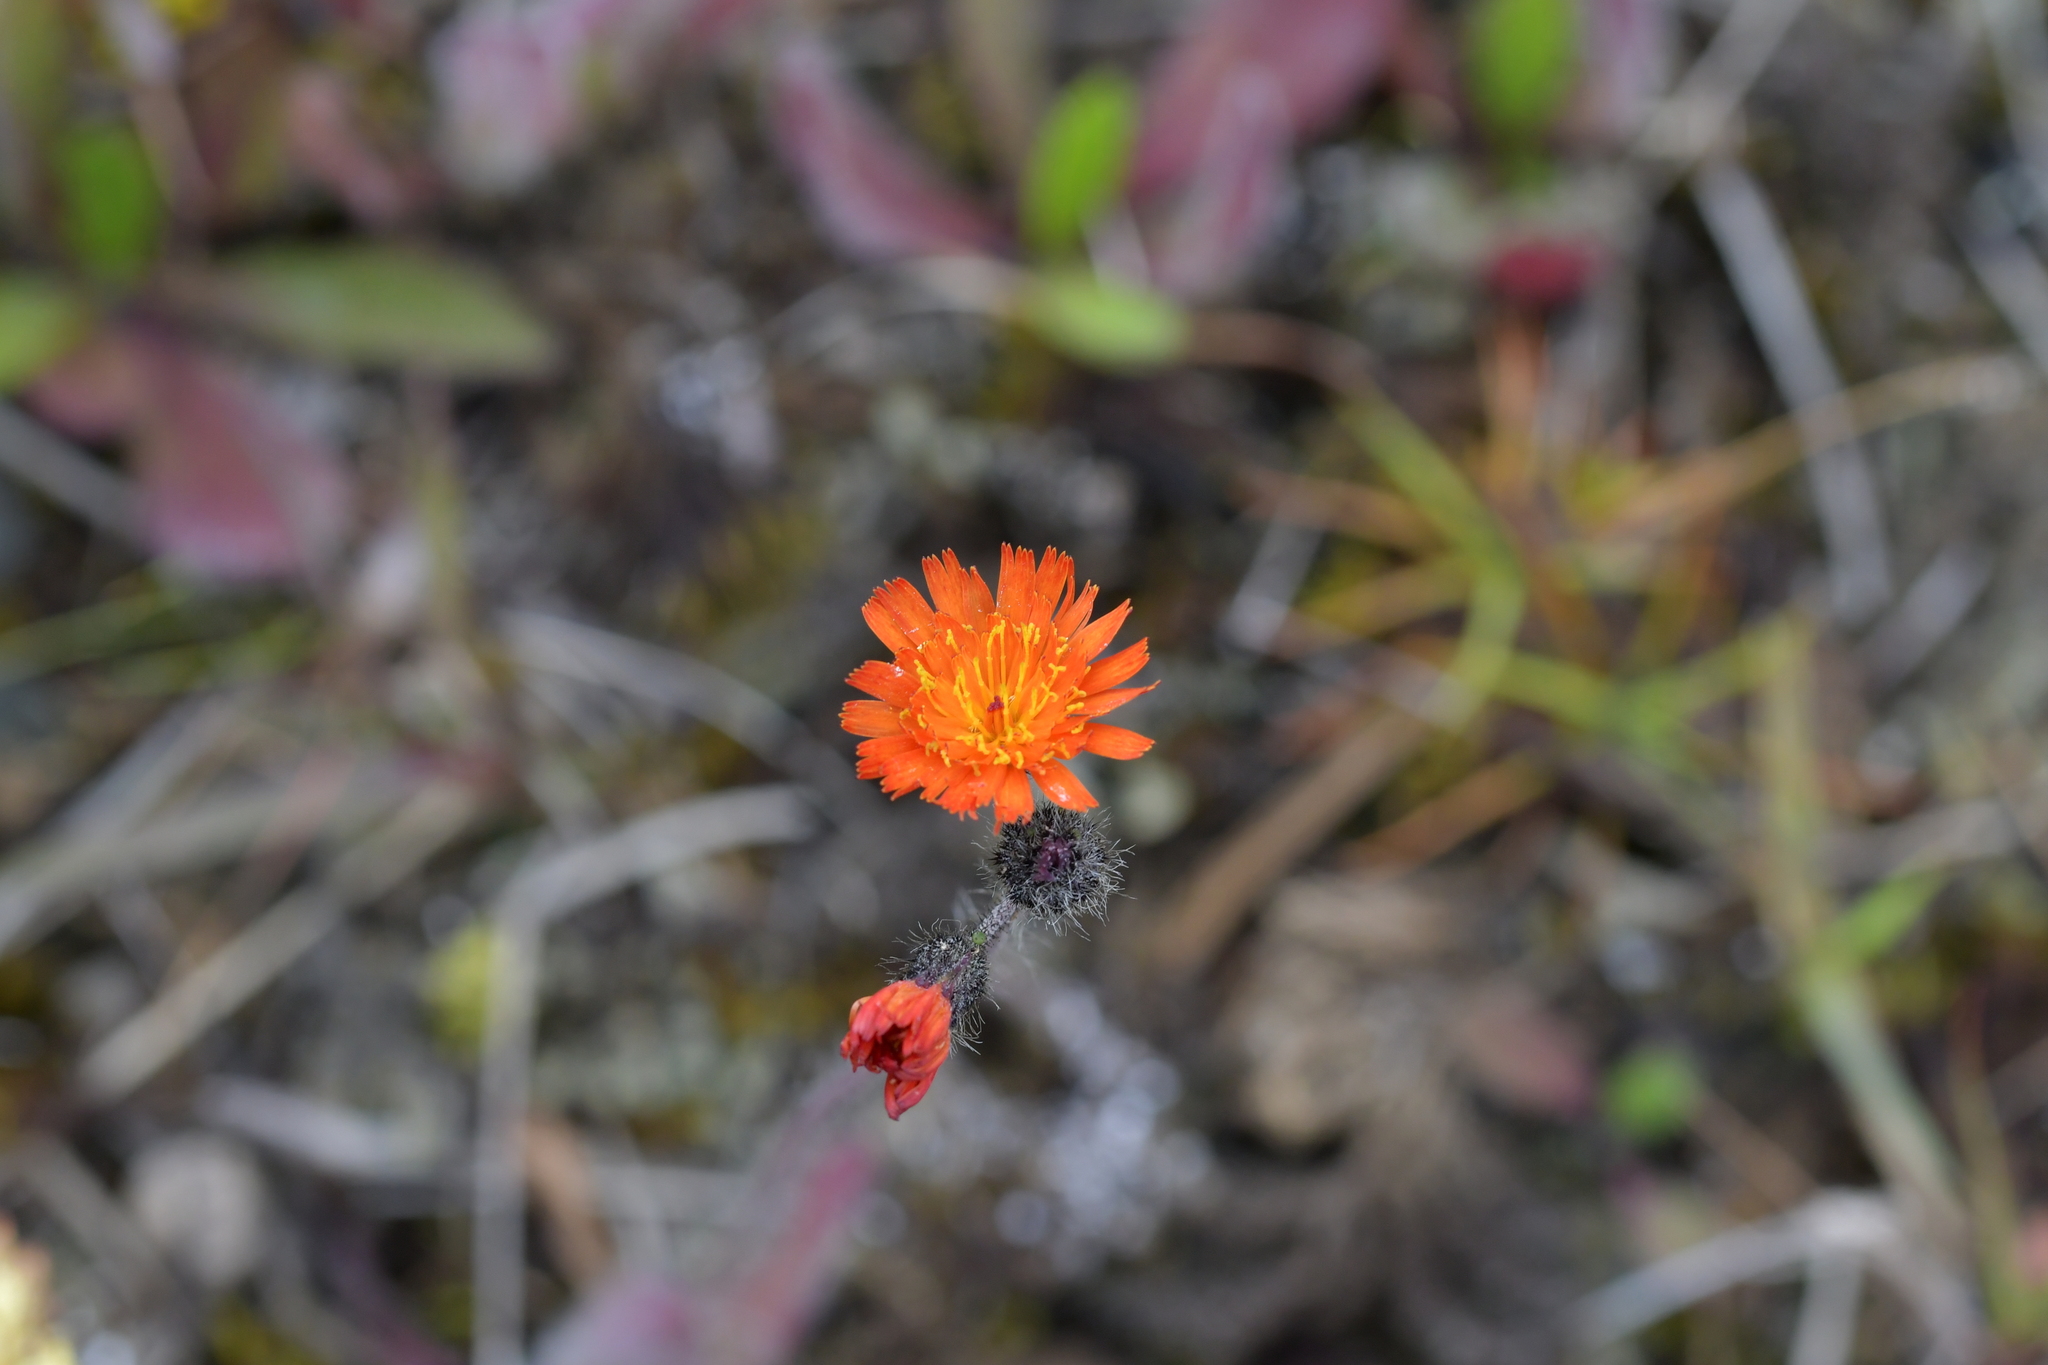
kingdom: Plantae
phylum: Tracheophyta
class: Magnoliopsida
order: Asterales
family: Asteraceae
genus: Pilosella
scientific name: Pilosella aurantiaca
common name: Fox-and-cubs
